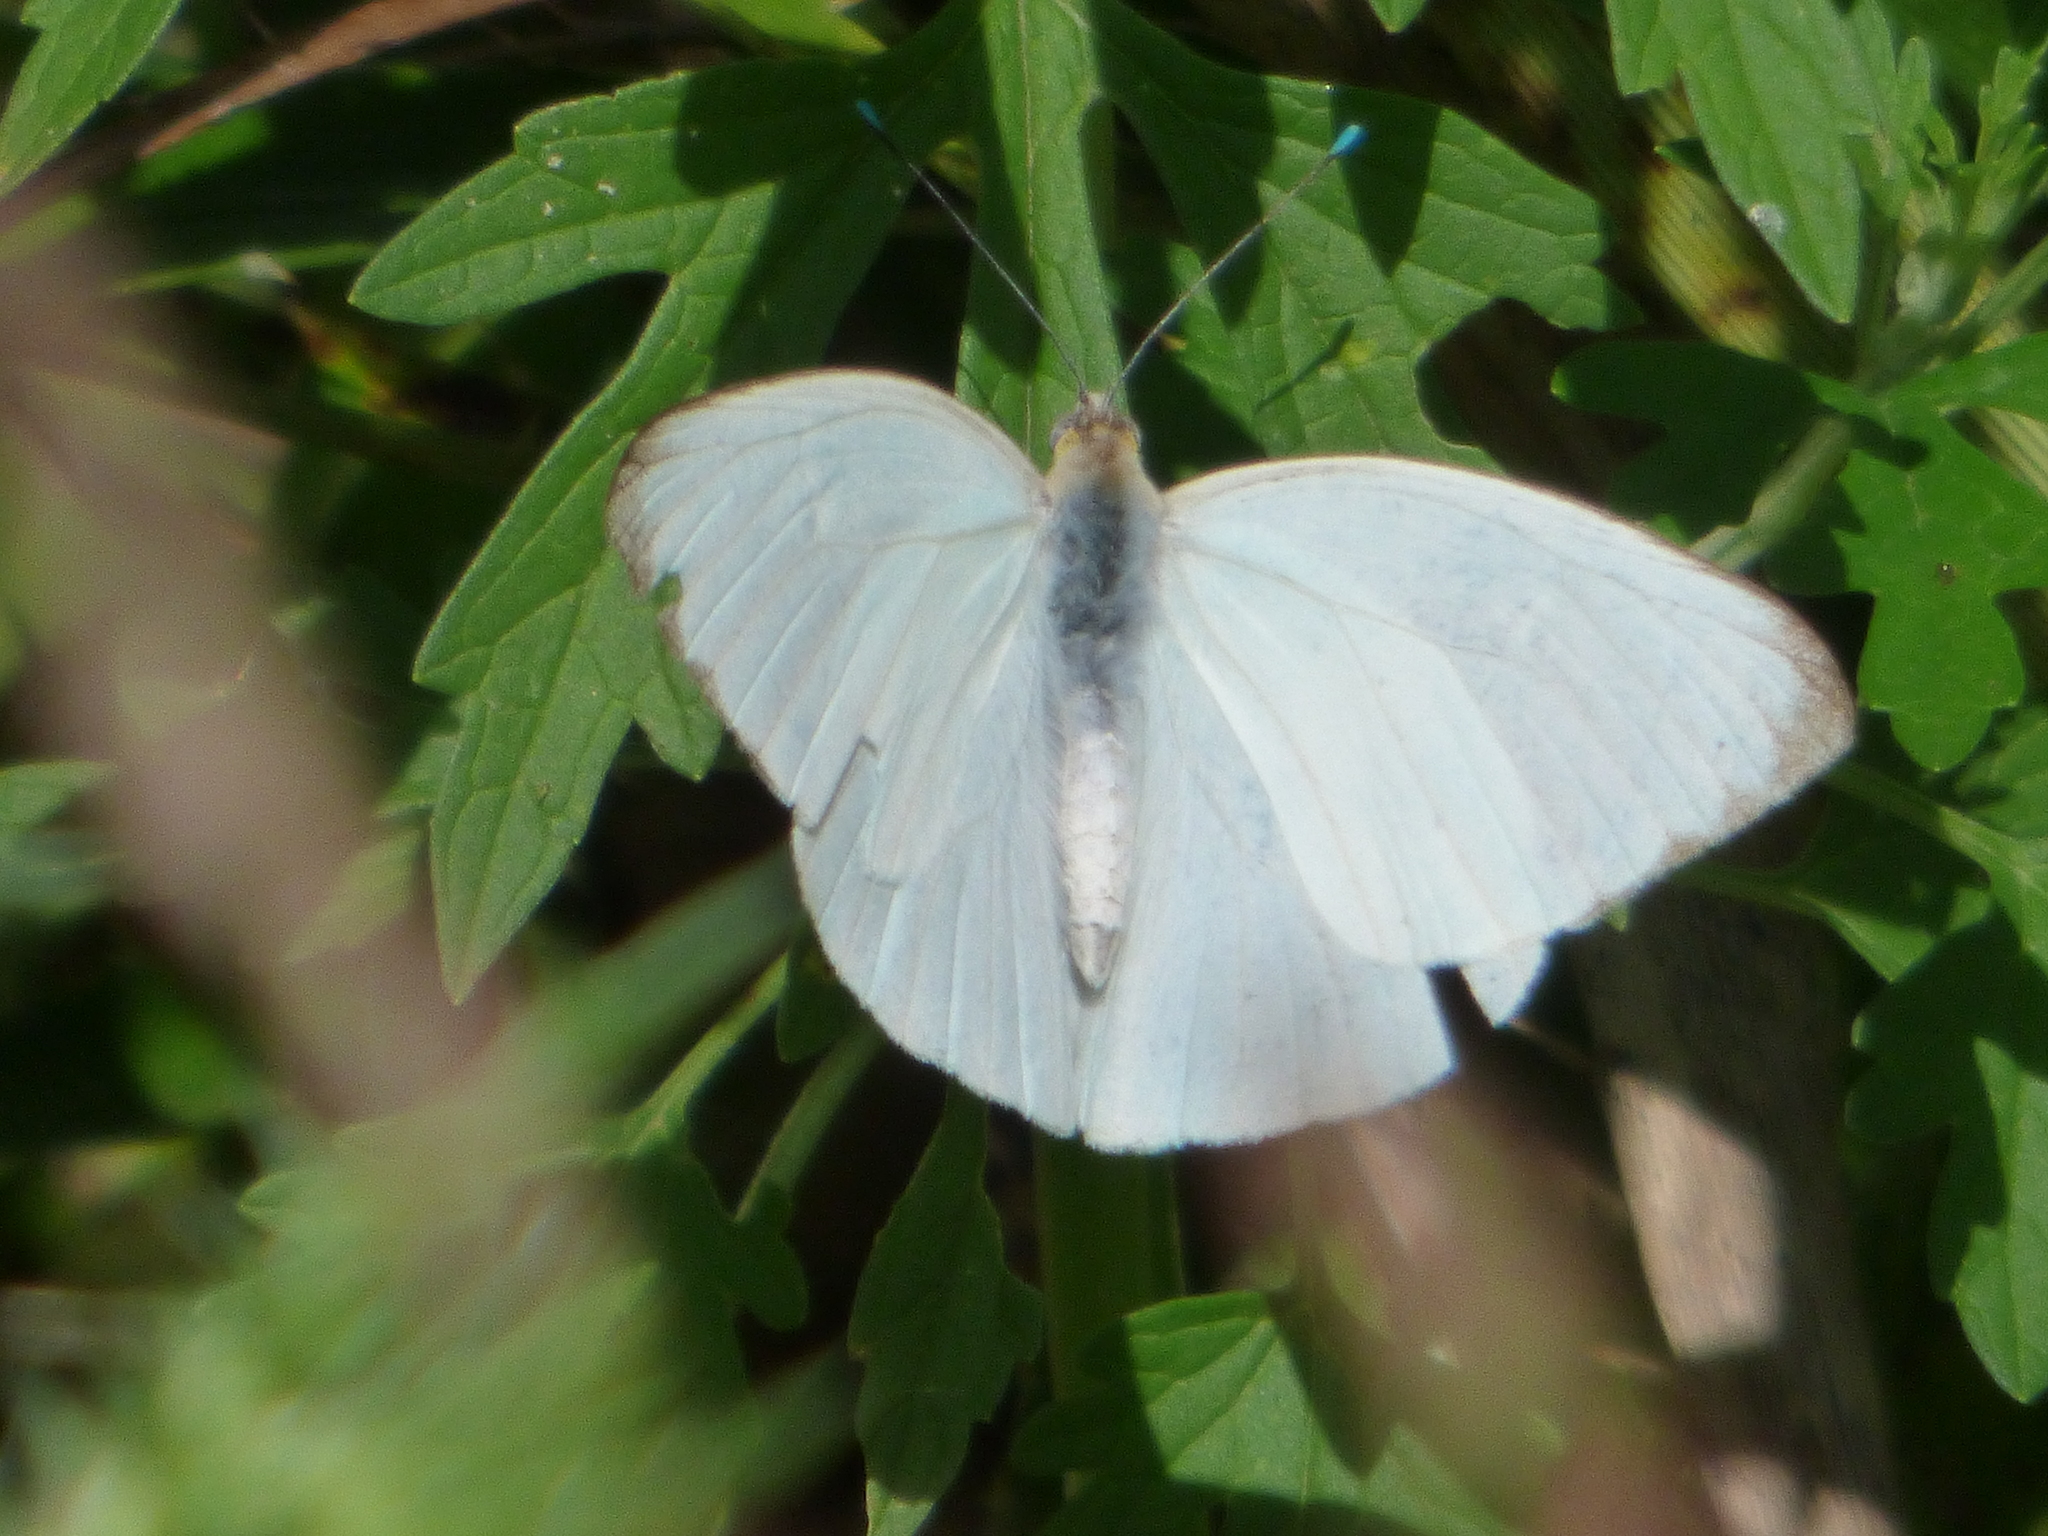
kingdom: Animalia
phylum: Arthropoda
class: Insecta
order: Lepidoptera
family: Pieridae
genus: Ascia
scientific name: Ascia monuste
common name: Great southern white
